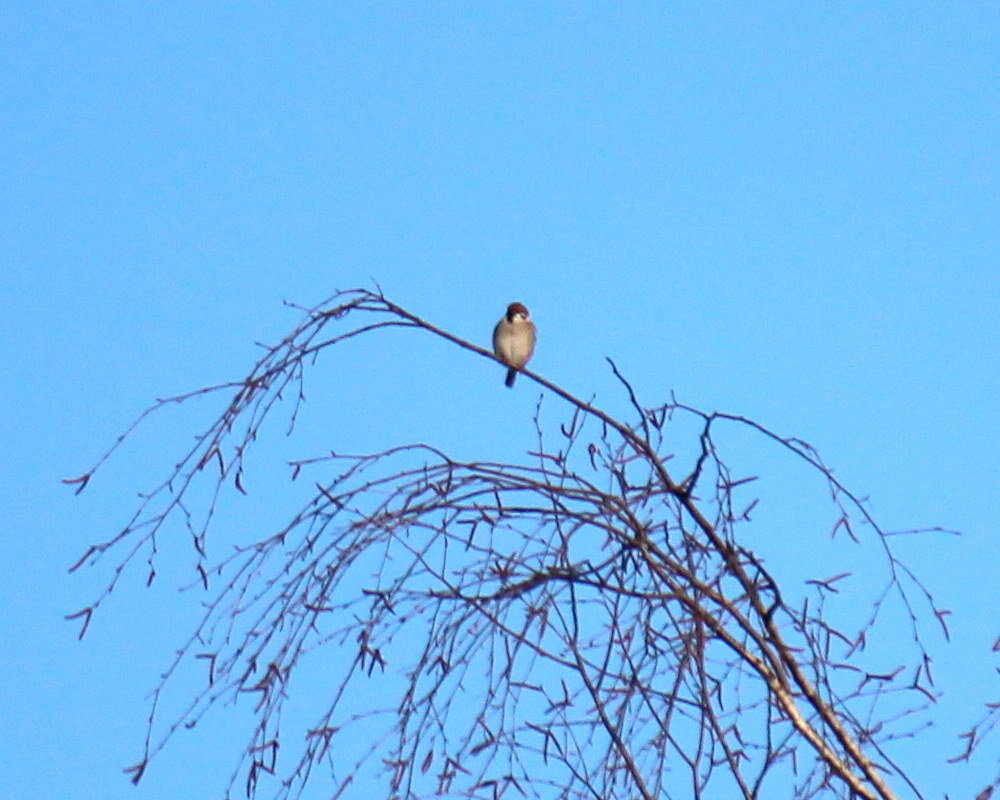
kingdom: Animalia
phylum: Chordata
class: Aves
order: Passeriformes
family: Passeridae
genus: Passer
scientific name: Passer montanus
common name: Eurasian tree sparrow
